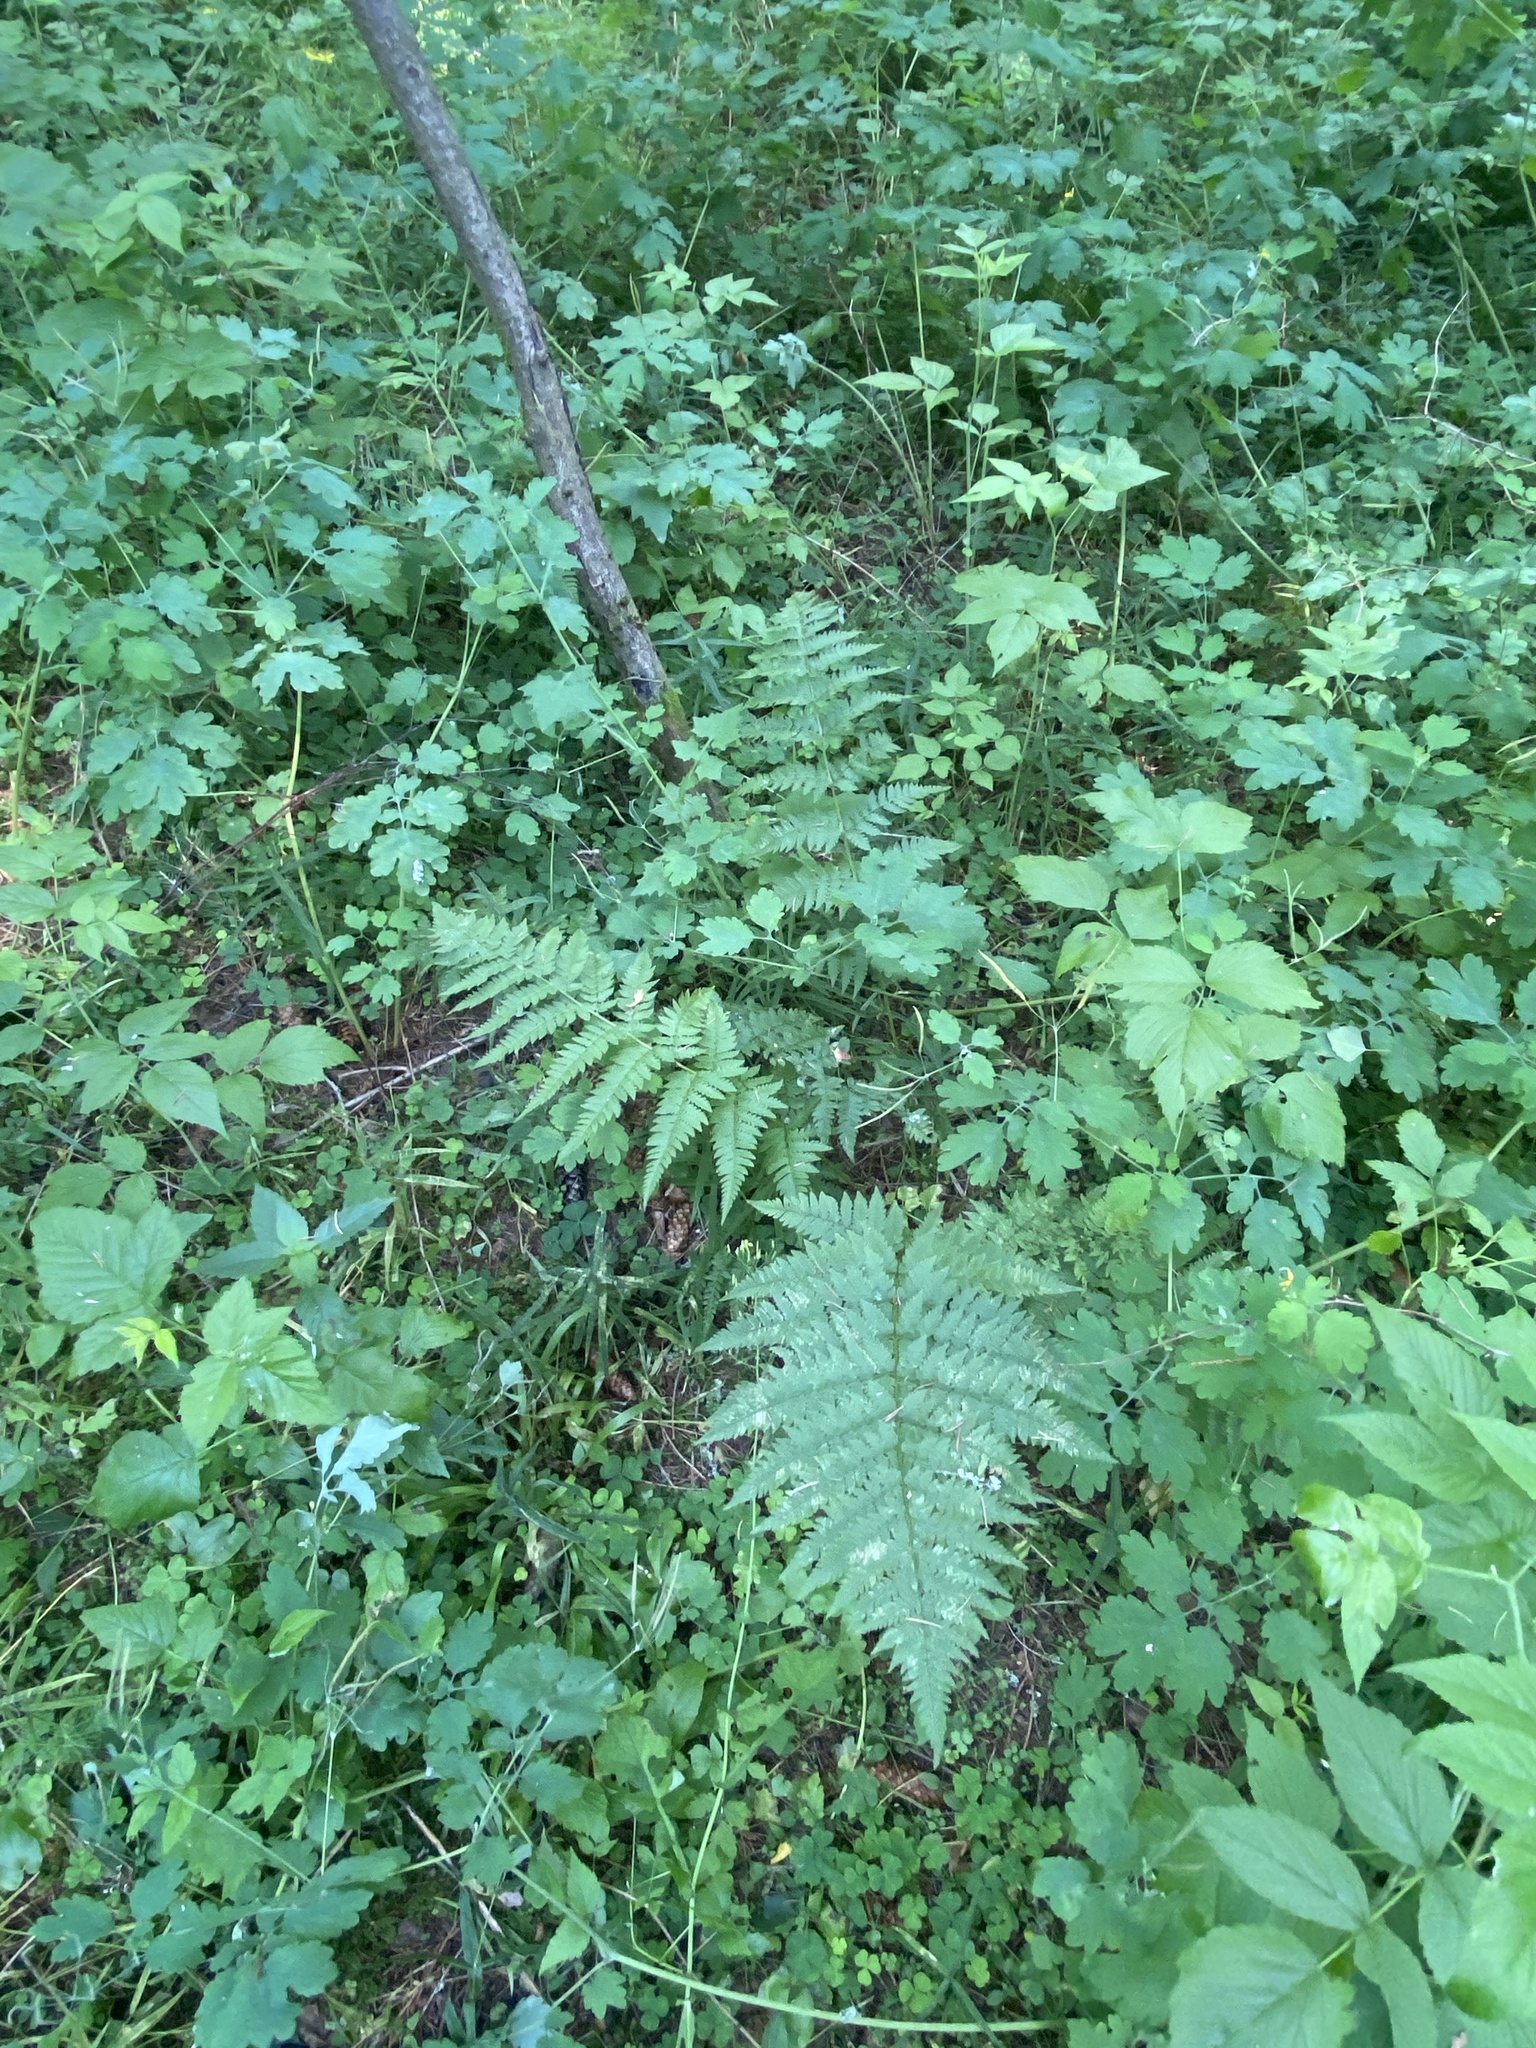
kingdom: Plantae
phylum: Tracheophyta
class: Polypodiopsida
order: Polypodiales
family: Dryopteridaceae
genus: Dryopteris
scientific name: Dryopteris carthusiana
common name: Narrow buckler-fern
